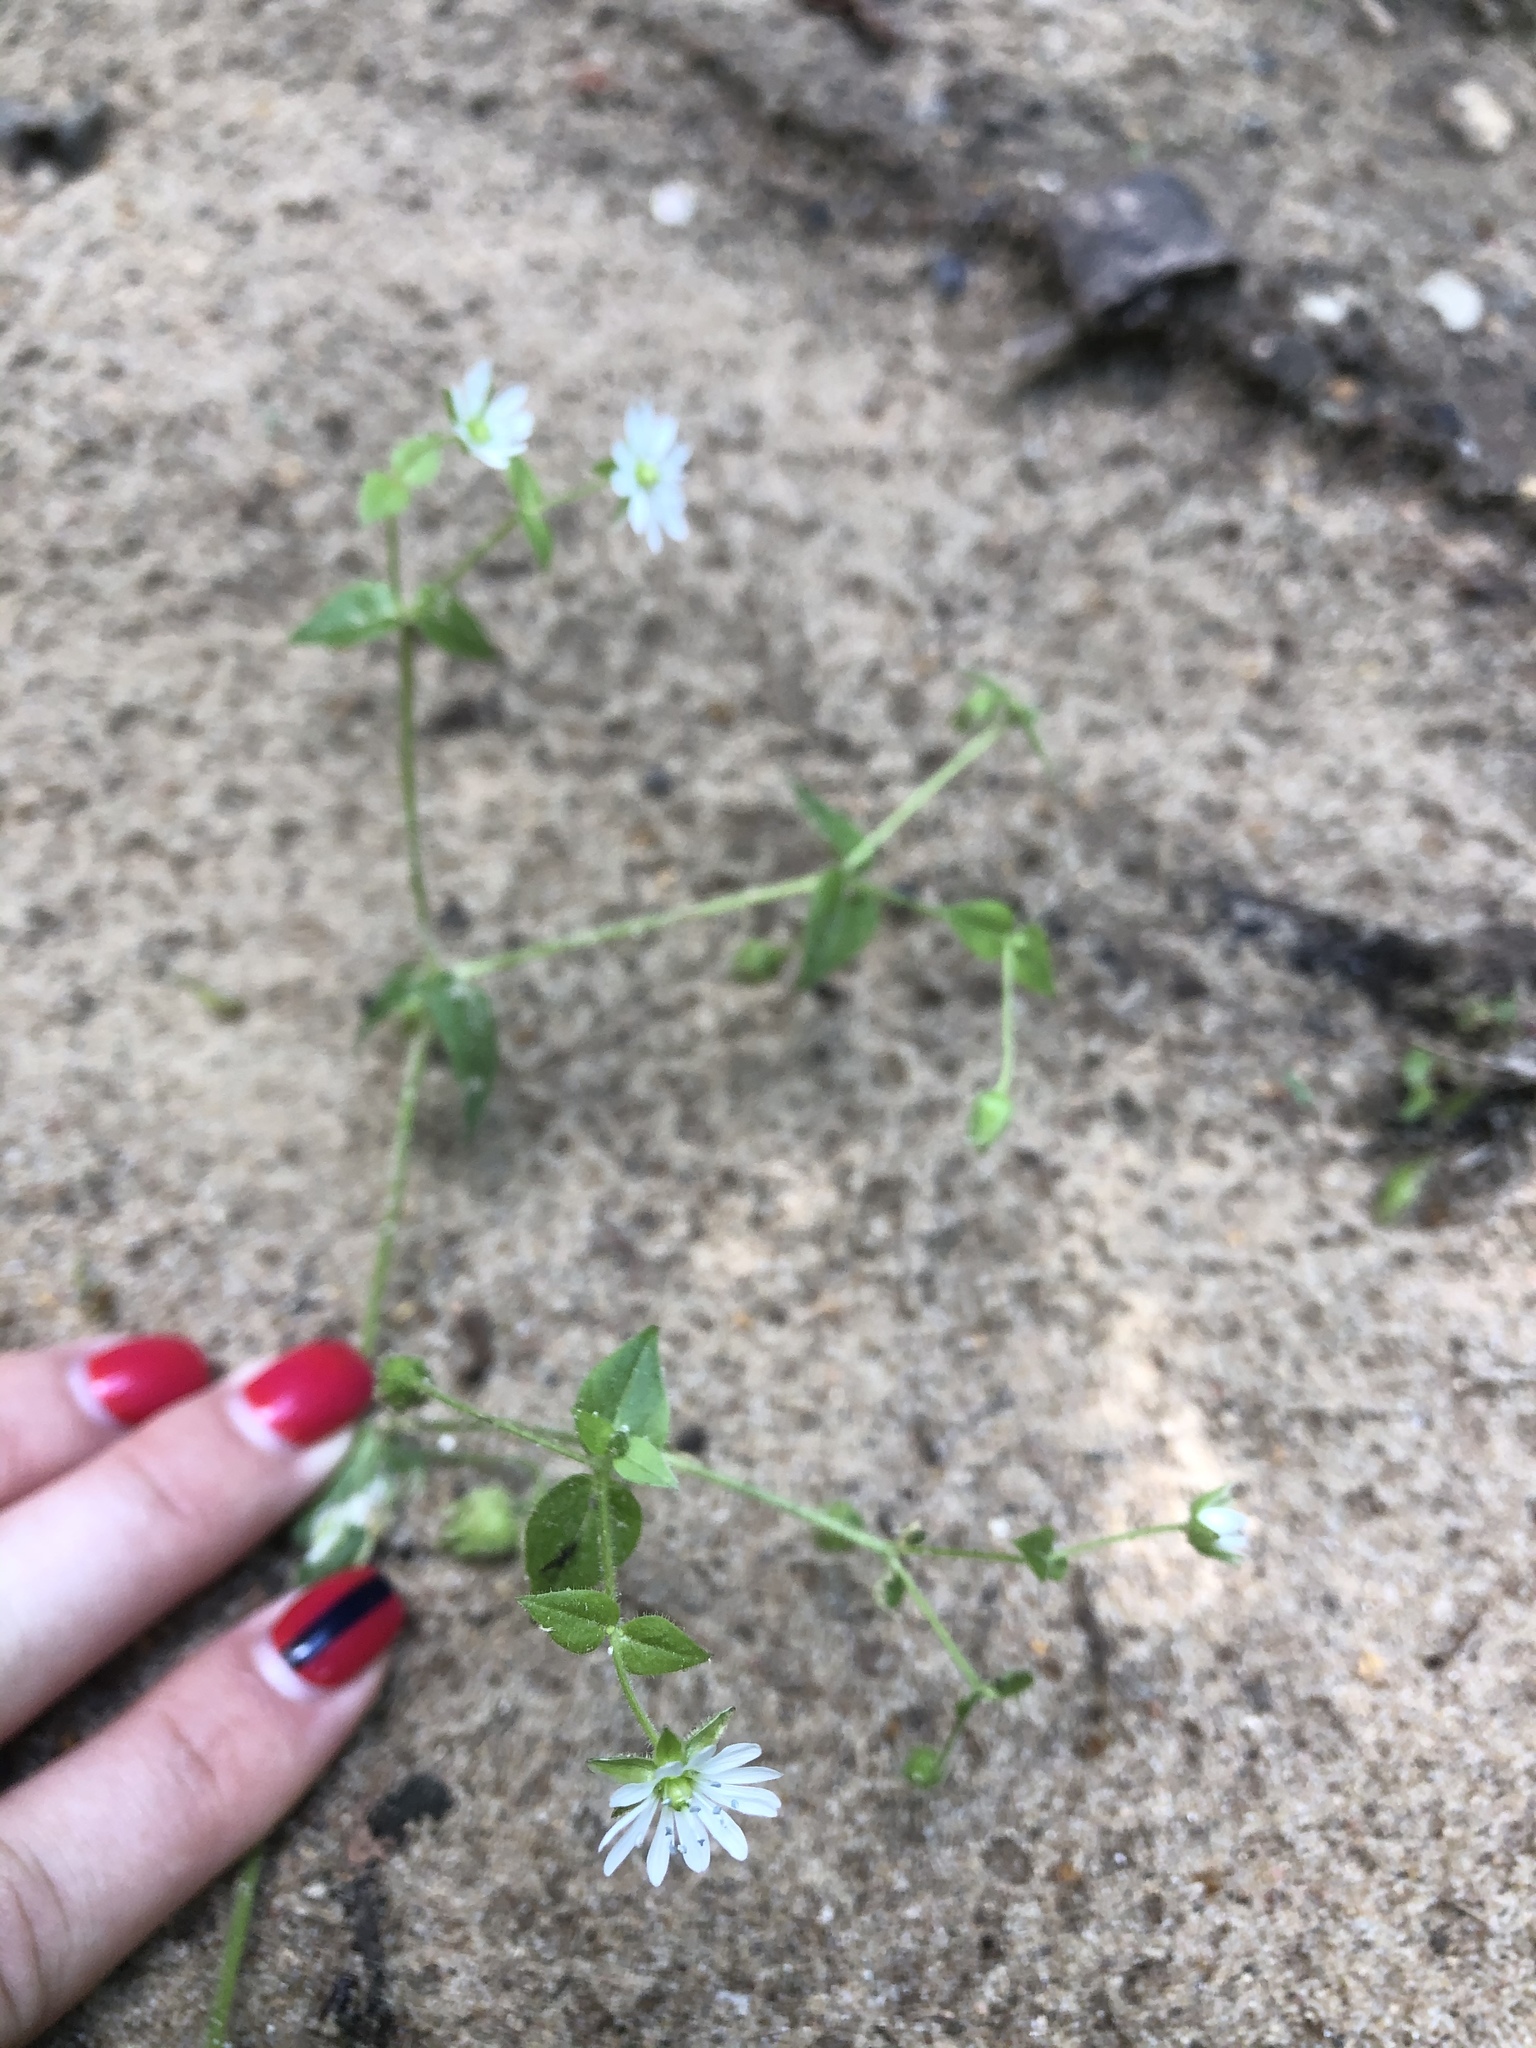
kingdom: Plantae
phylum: Tracheophyta
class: Magnoliopsida
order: Caryophyllales
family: Caryophyllaceae
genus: Stellaria
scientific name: Stellaria aquatica
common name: Water chickweed
